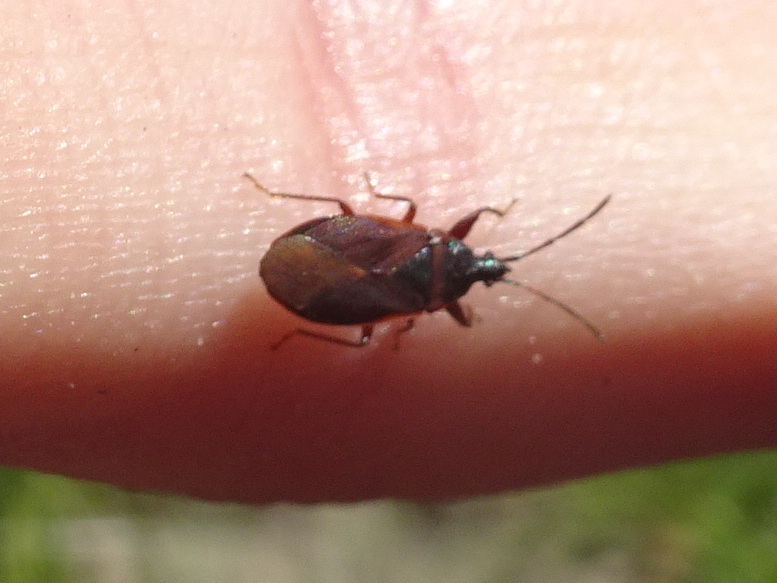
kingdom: Animalia
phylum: Arthropoda
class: Insecta
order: Hemiptera
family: Rhyparochromidae
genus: Gastrodes
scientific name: Gastrodes grossipes
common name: Pine cone bug
